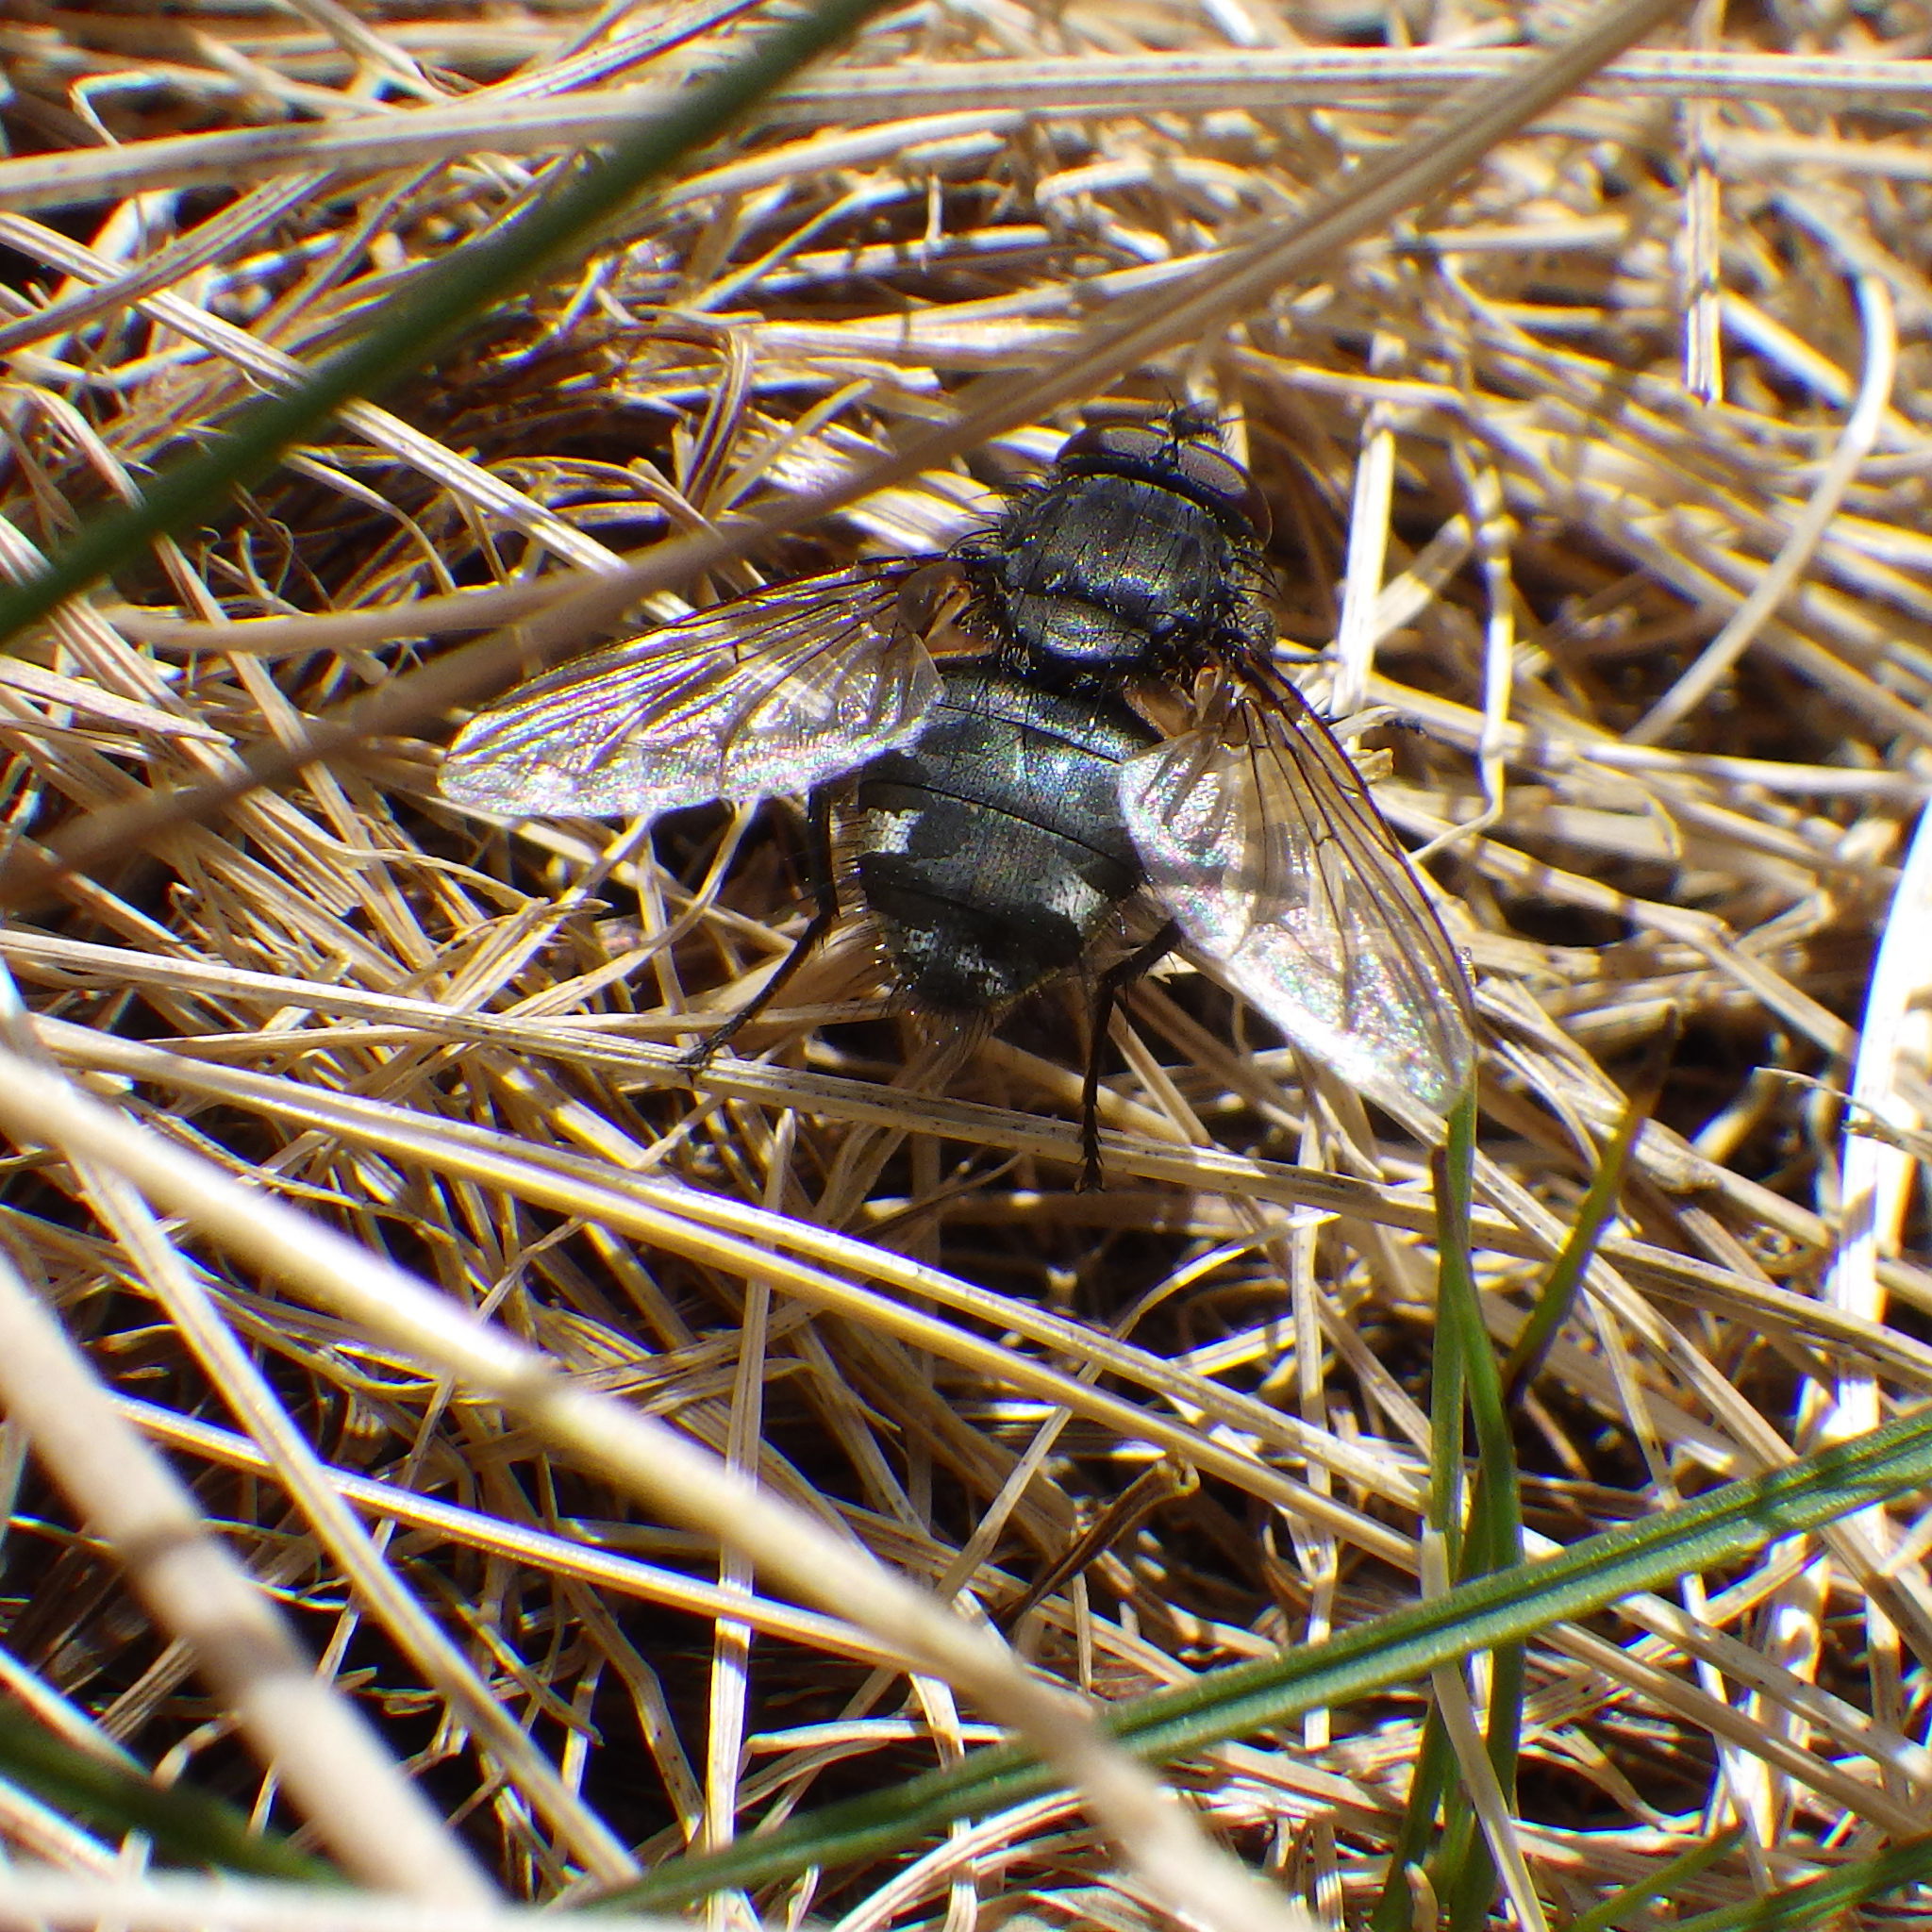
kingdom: Animalia
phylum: Arthropoda
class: Insecta
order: Diptera
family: Polleniidae
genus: Pollenia
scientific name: Pollenia
